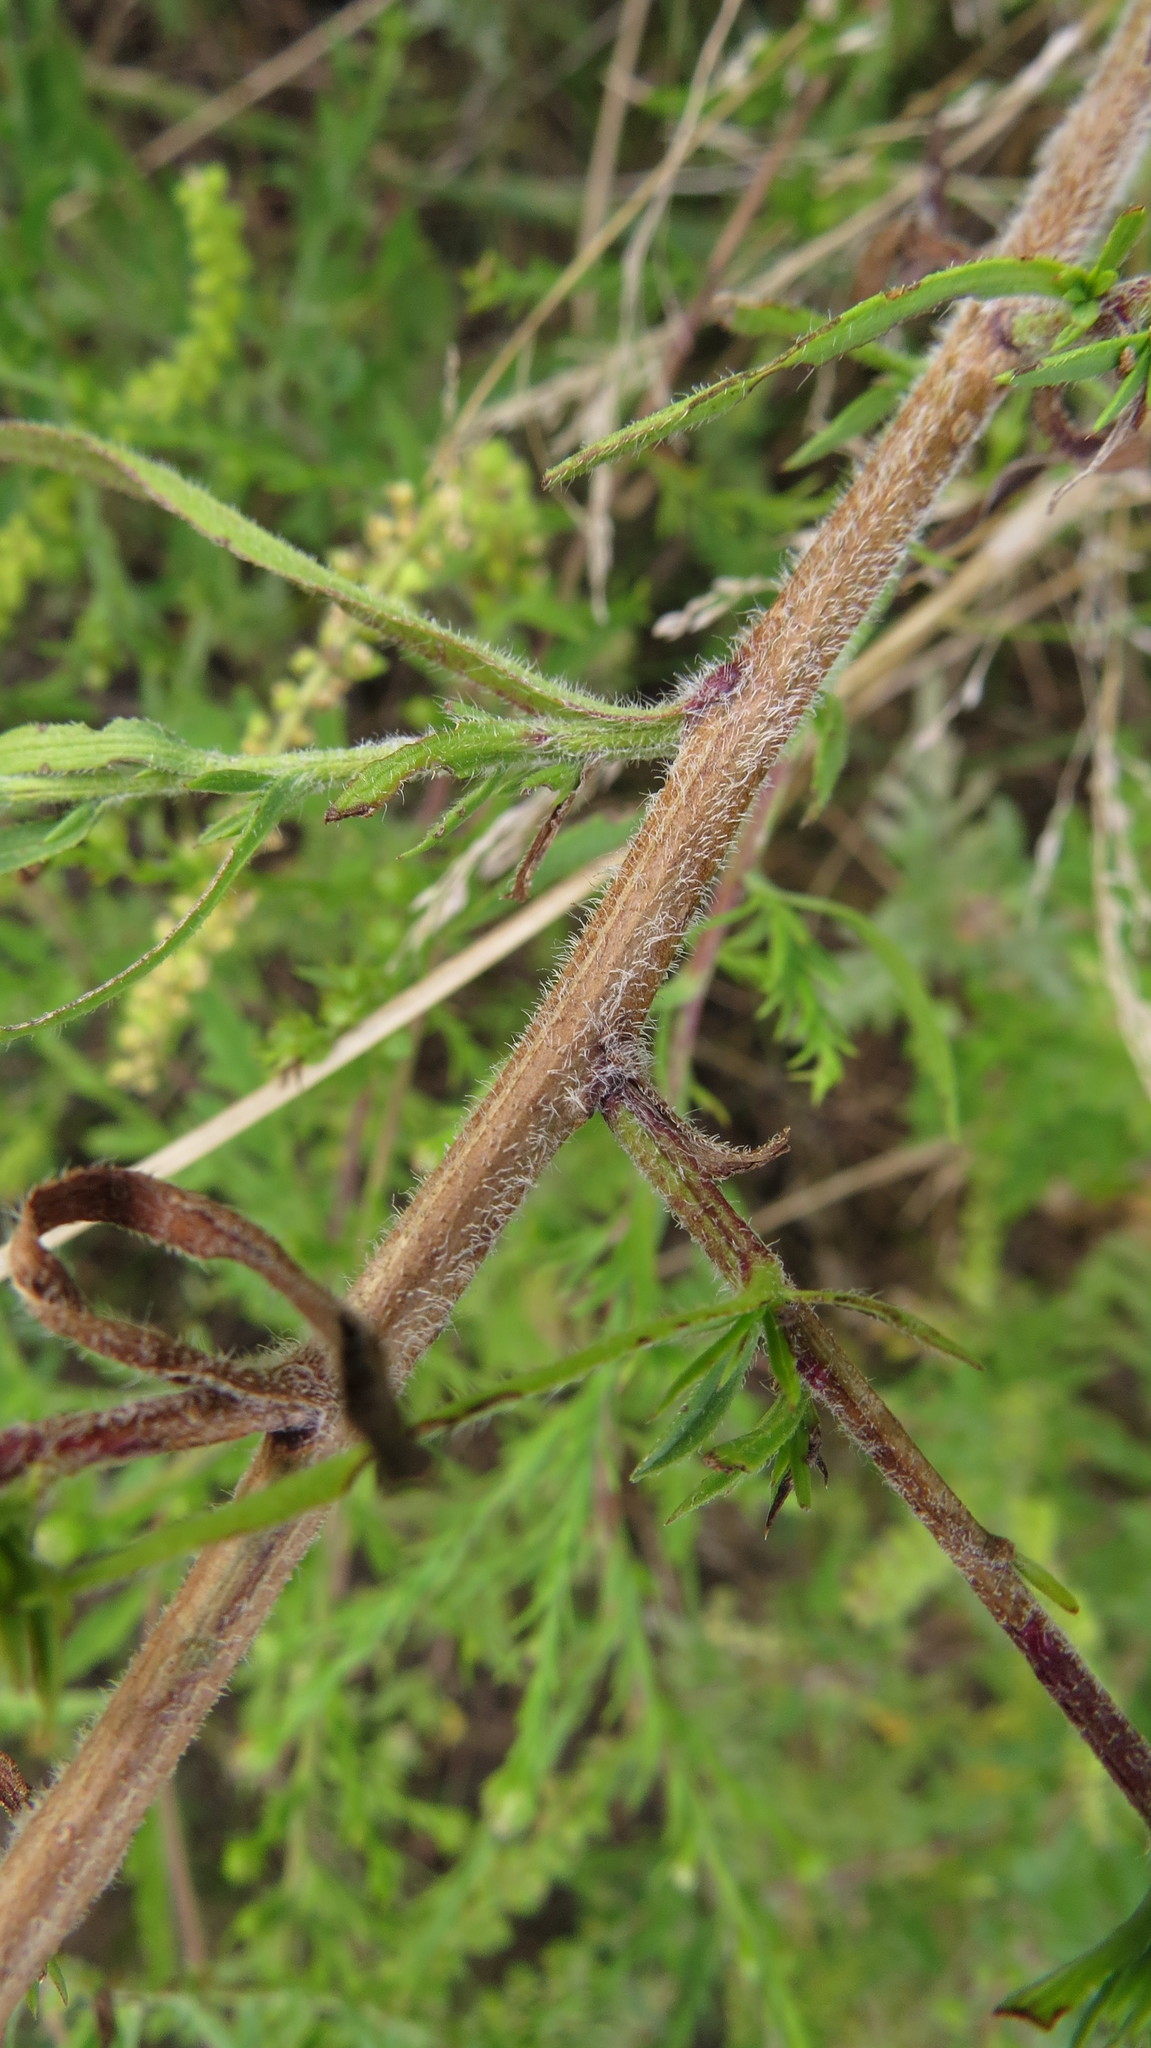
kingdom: Plantae
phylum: Tracheophyta
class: Magnoliopsida
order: Asterales
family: Asteraceae
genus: Symphyotrichum
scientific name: Symphyotrichum pilosum
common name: Awl aster
